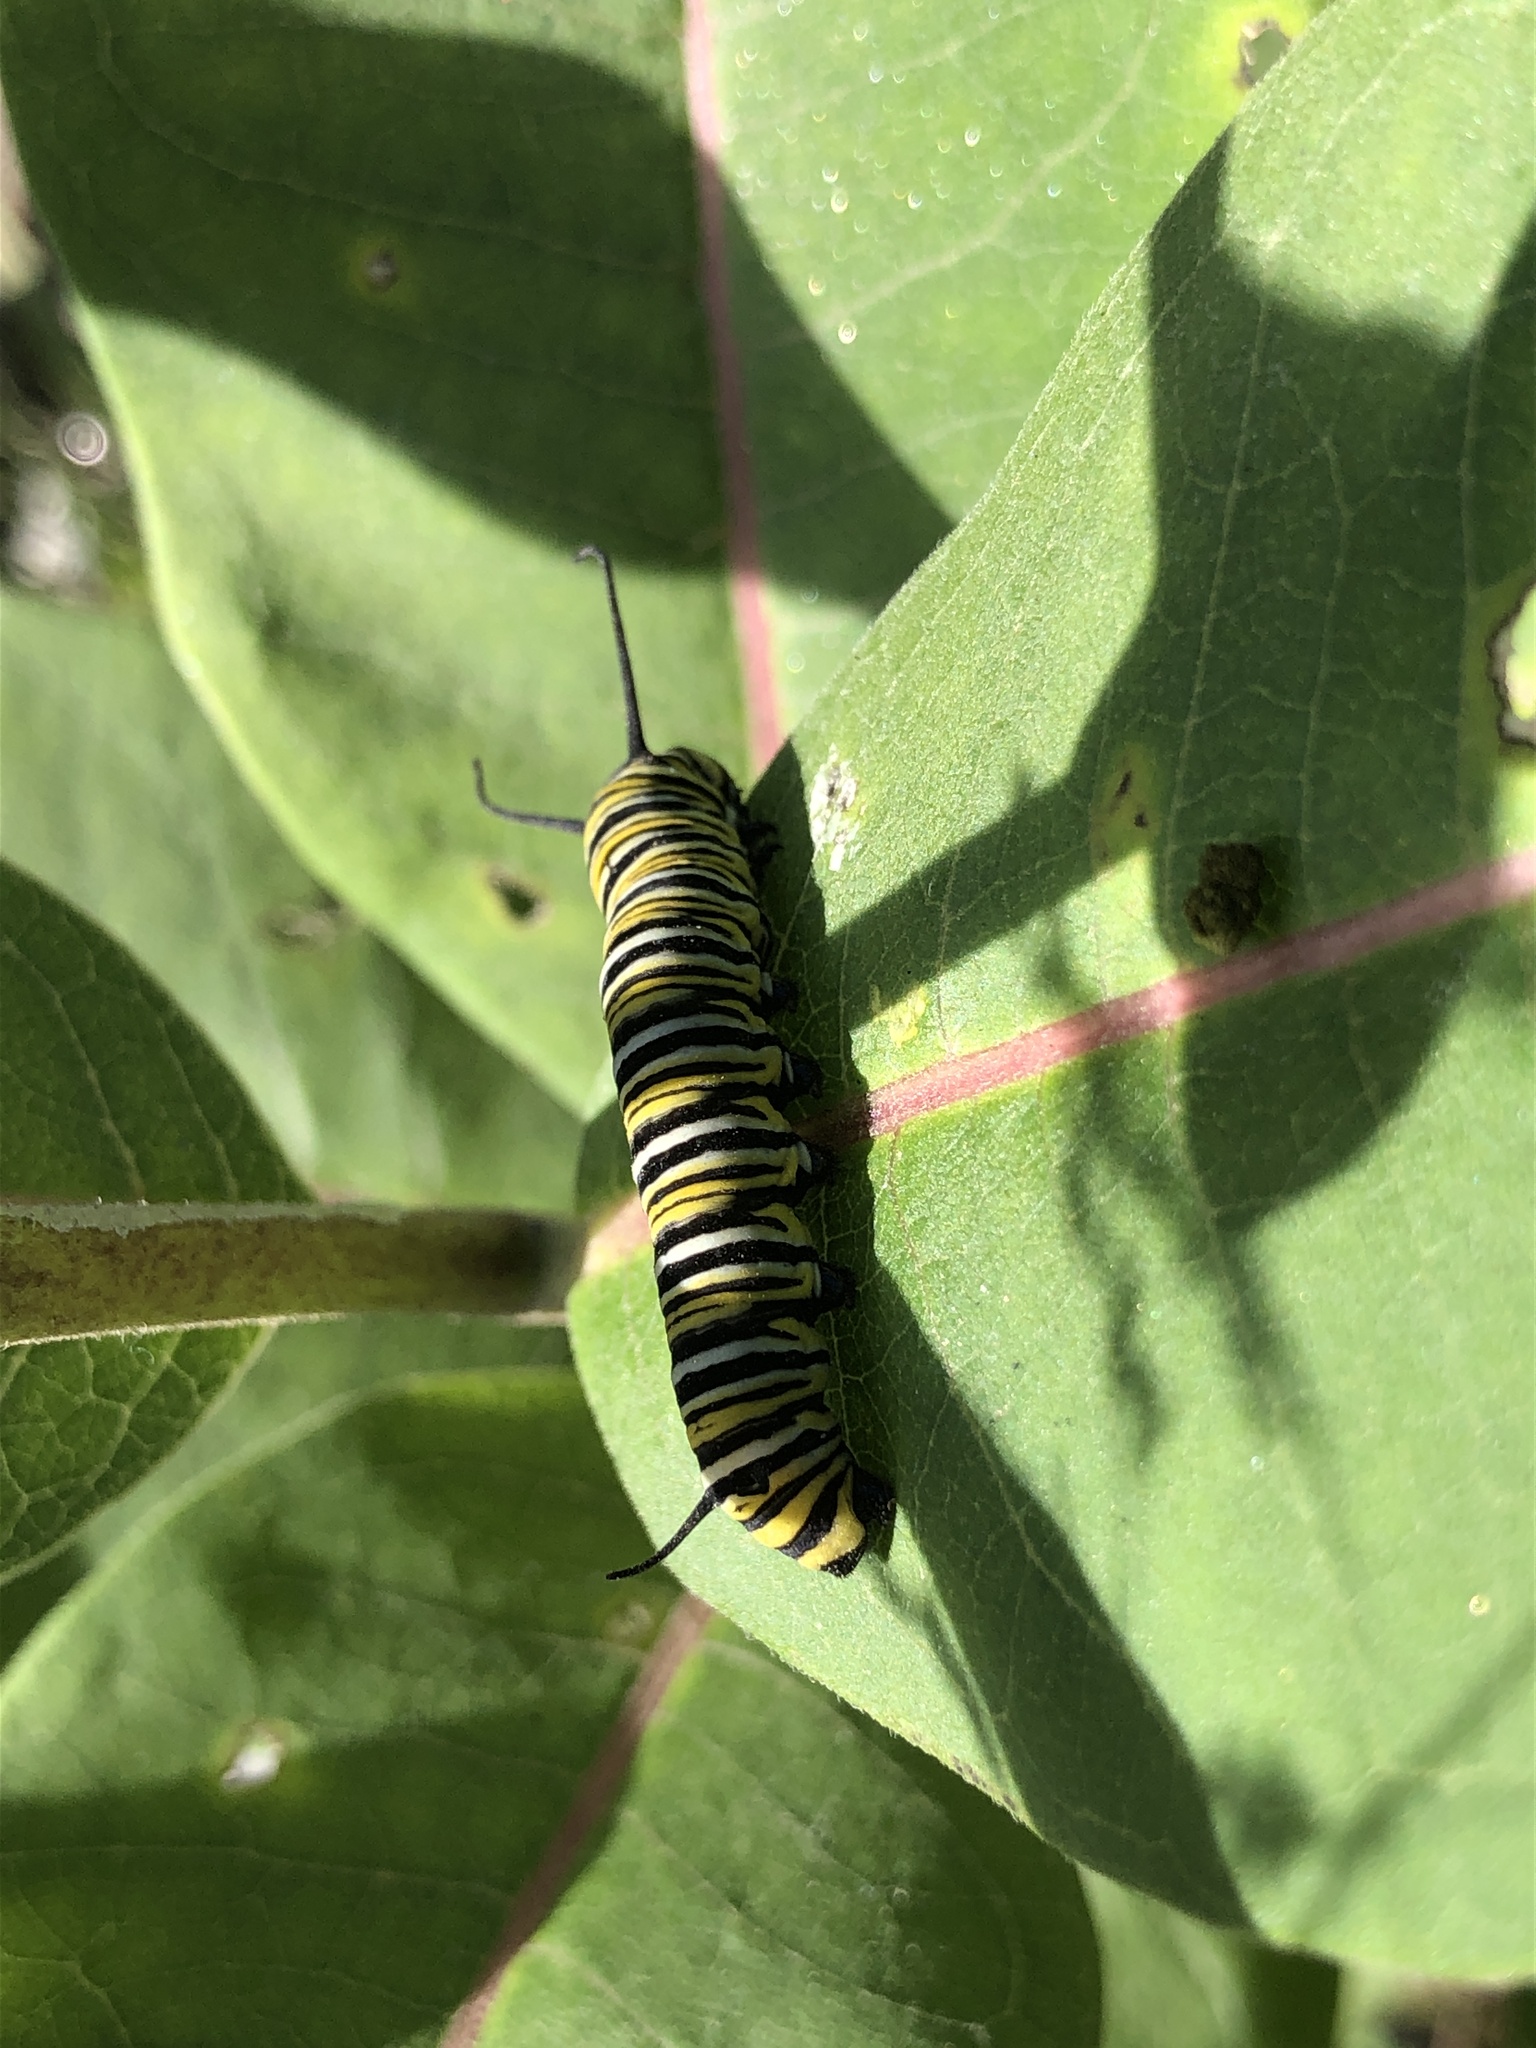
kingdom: Animalia
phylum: Arthropoda
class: Insecta
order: Lepidoptera
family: Nymphalidae
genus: Danaus
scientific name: Danaus plexippus
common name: Monarch
